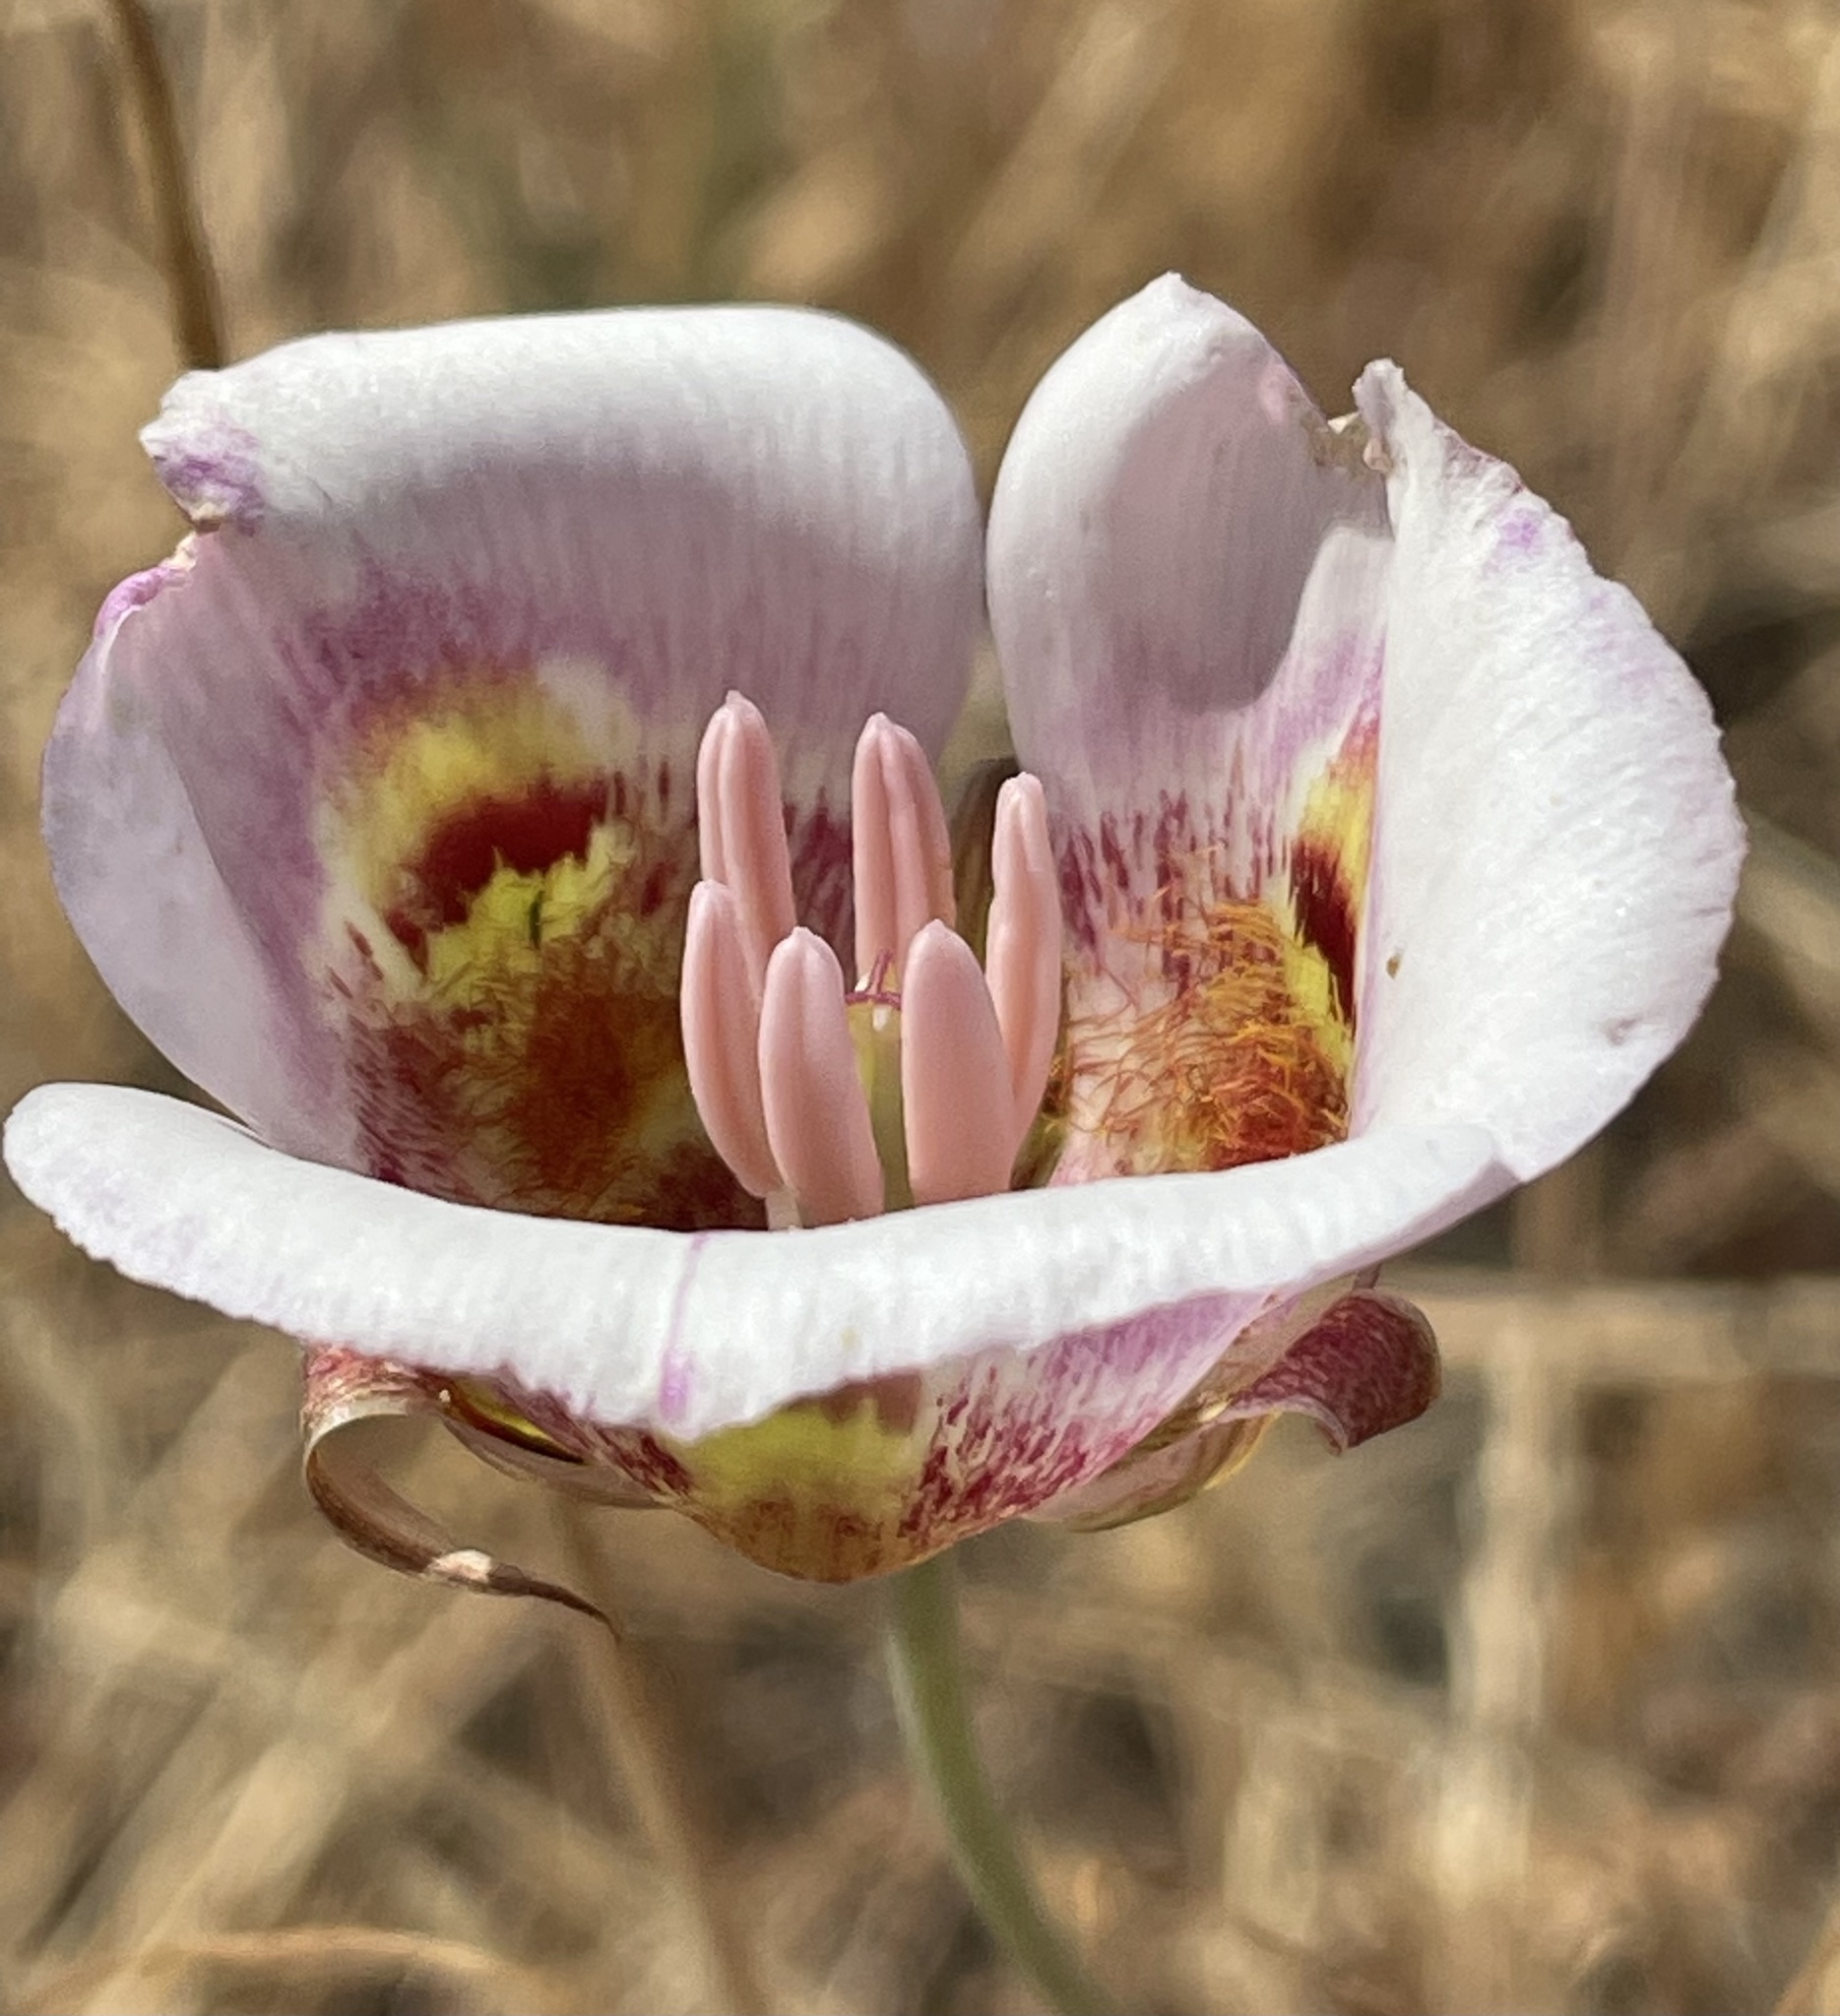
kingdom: Plantae
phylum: Tracheophyta
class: Liliopsida
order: Liliales
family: Liliaceae
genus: Calochortus
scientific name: Calochortus argillosus
